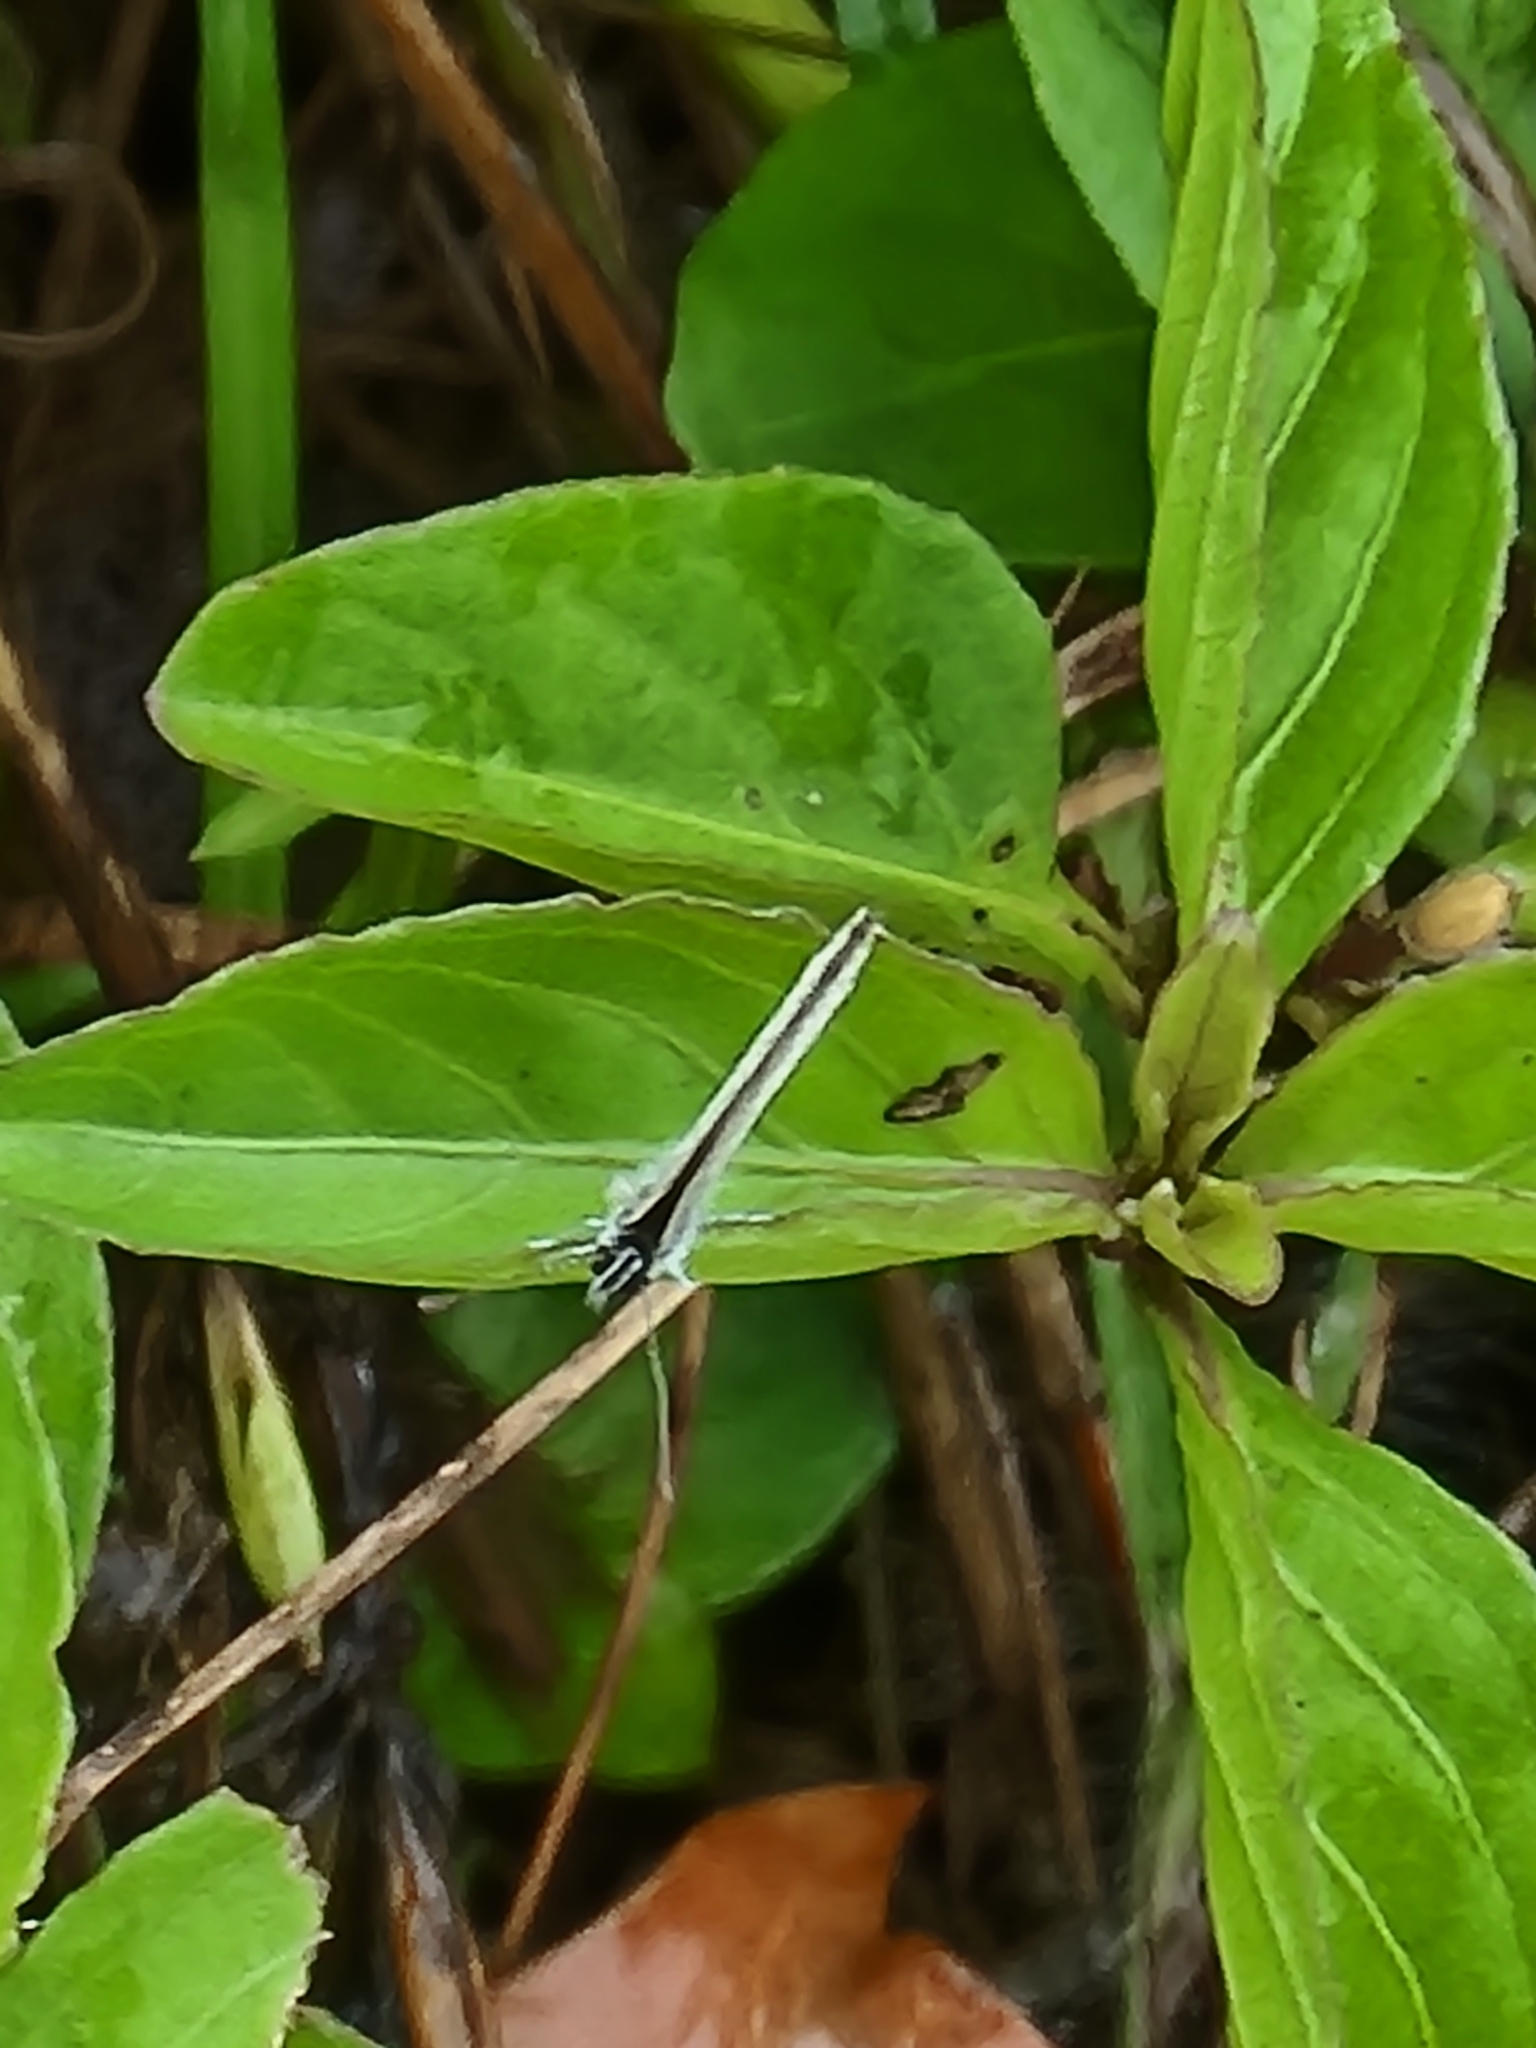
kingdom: Animalia
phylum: Arthropoda
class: Insecta
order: Lepidoptera
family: Lycaenidae
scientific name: Lycaenidae
